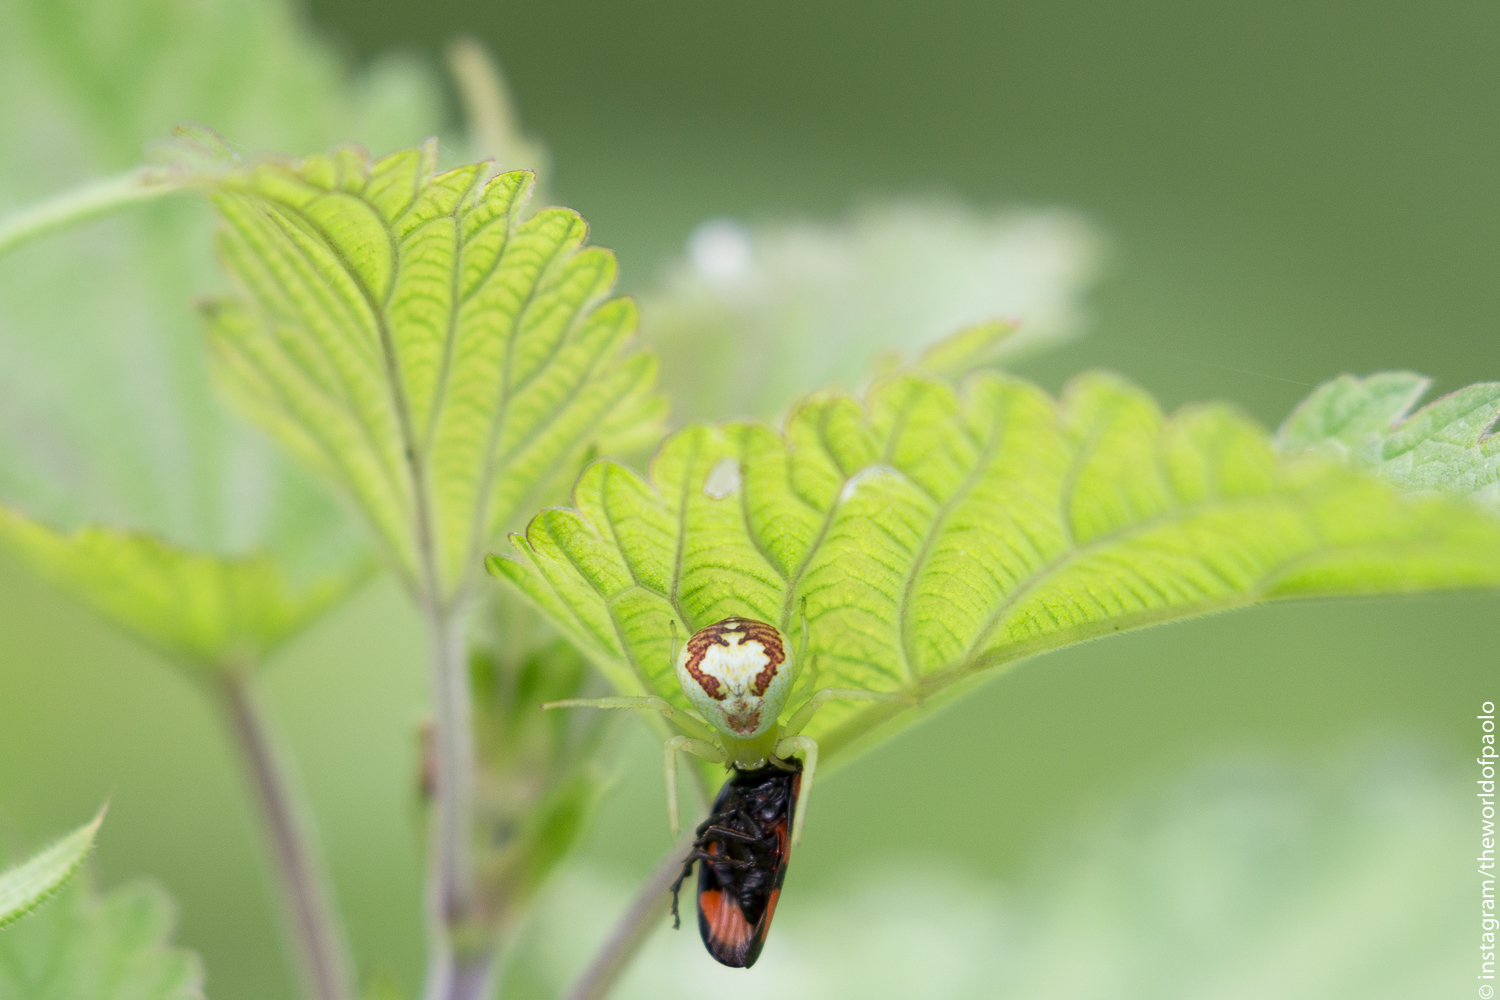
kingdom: Animalia
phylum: Arthropoda
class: Arachnida
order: Araneae
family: Thomisidae
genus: Ebrechtella
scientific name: Ebrechtella tricuspidata
